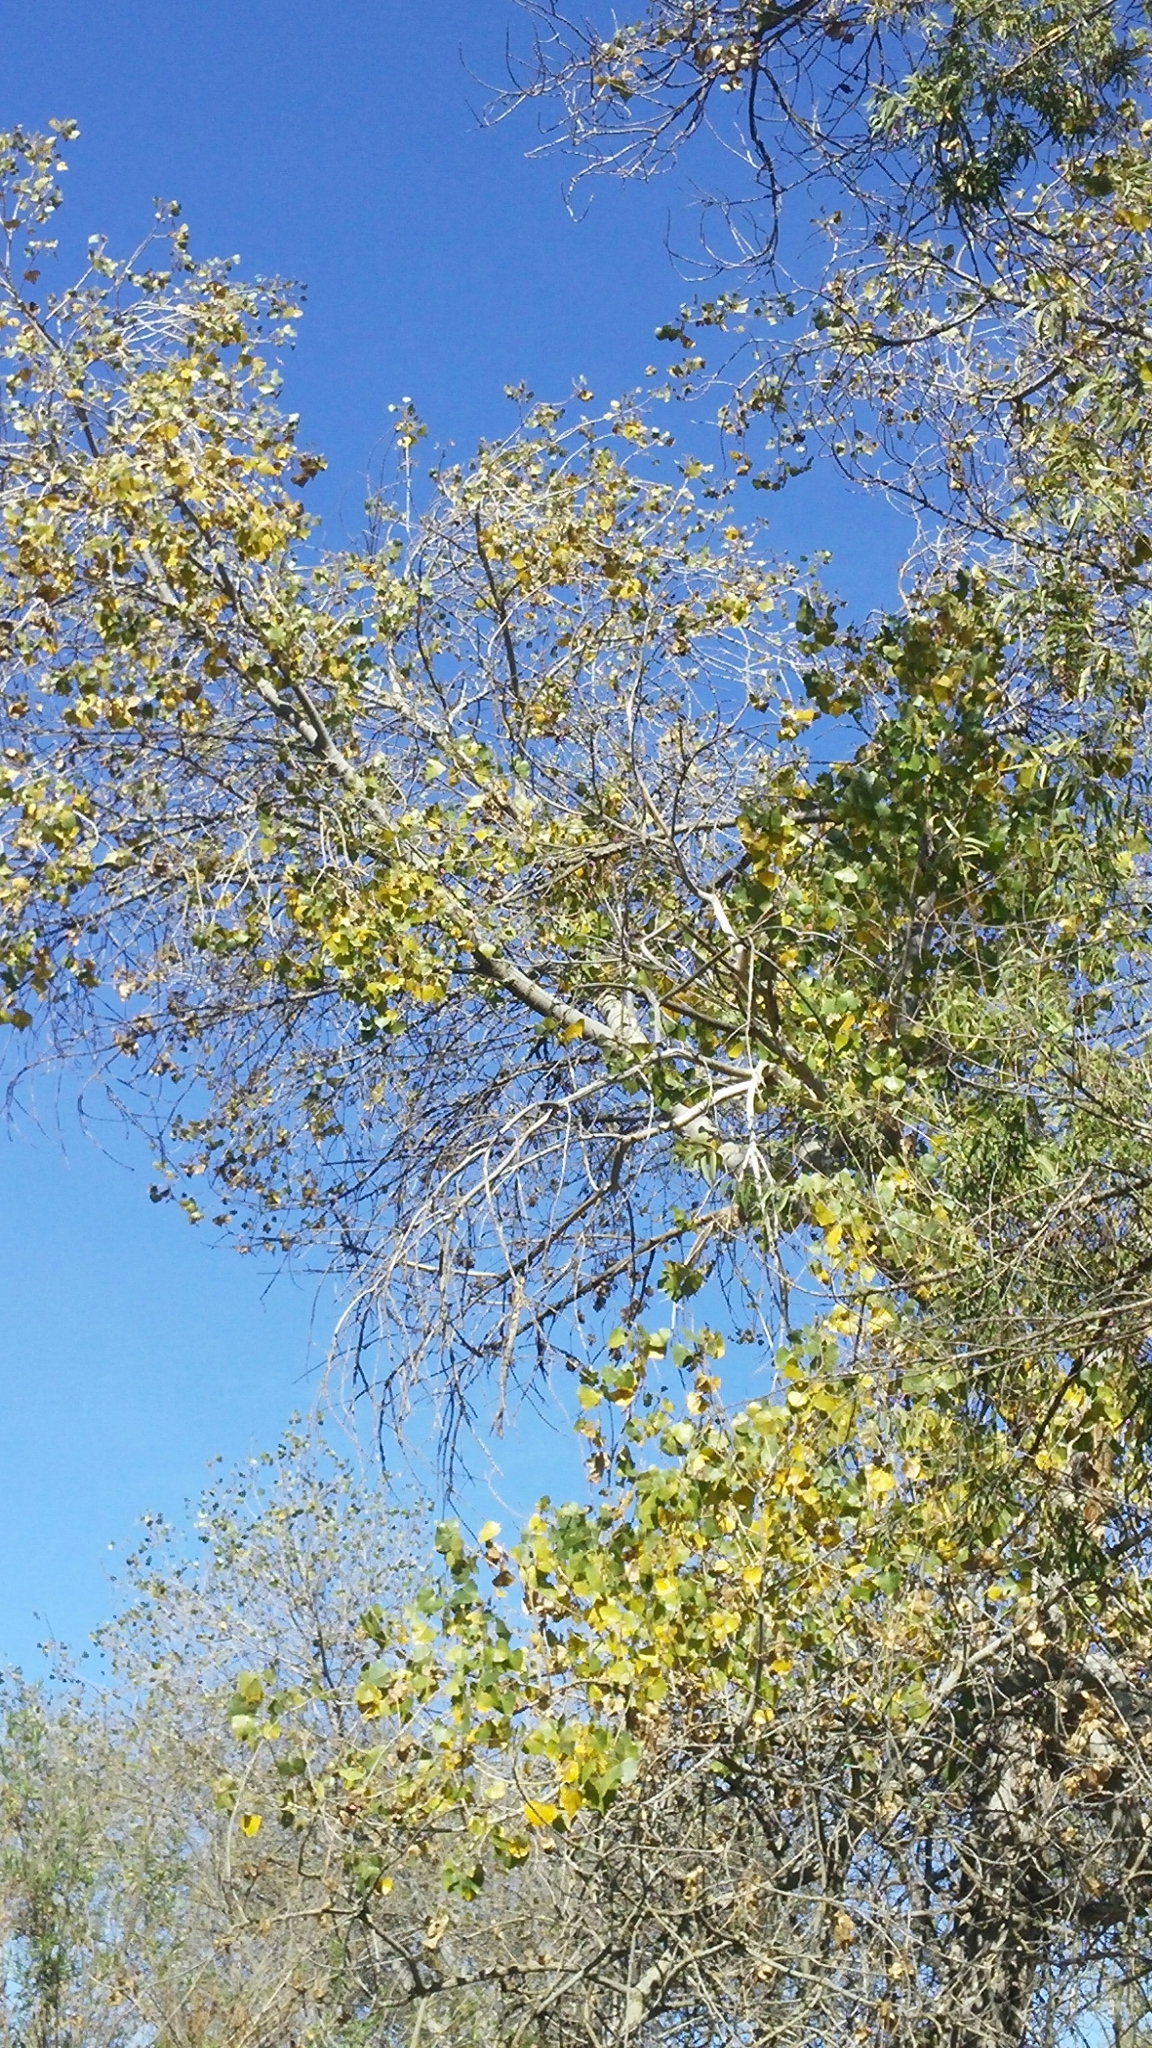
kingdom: Plantae
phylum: Tracheophyta
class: Magnoliopsida
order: Malpighiales
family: Salicaceae
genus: Populus
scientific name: Populus fremontii
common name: Fremont's cottonwood
